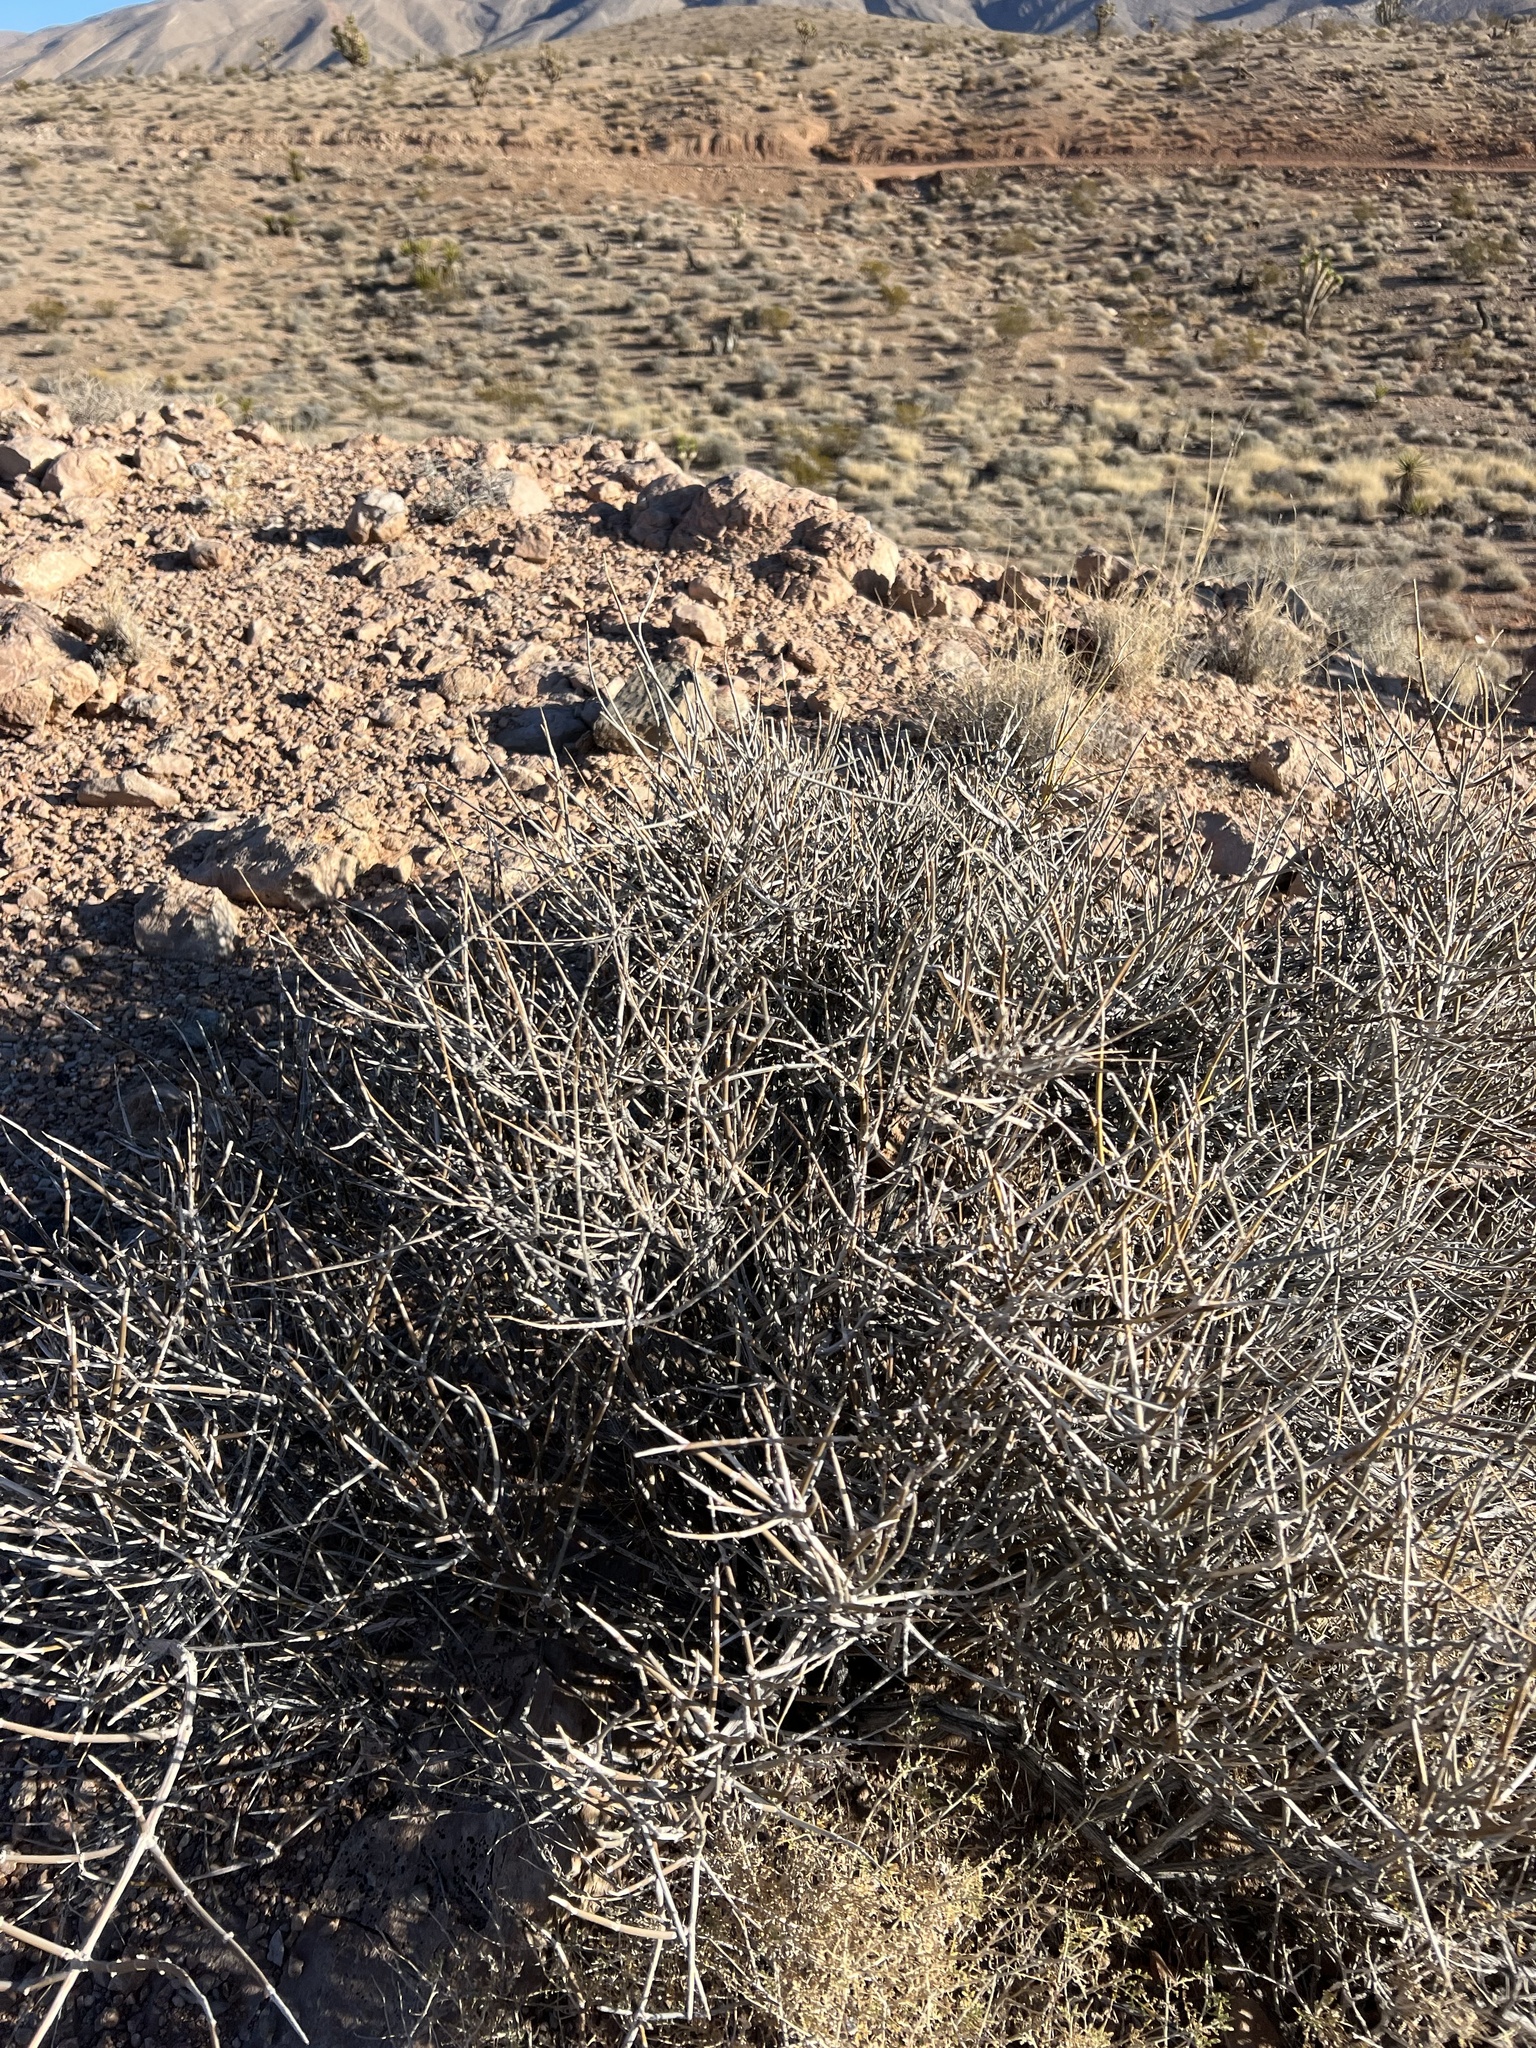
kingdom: Plantae
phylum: Tracheophyta
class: Gnetopsida
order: Ephedrales
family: Ephedraceae
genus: Ephedra
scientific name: Ephedra nevadensis
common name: Gray ephedra
